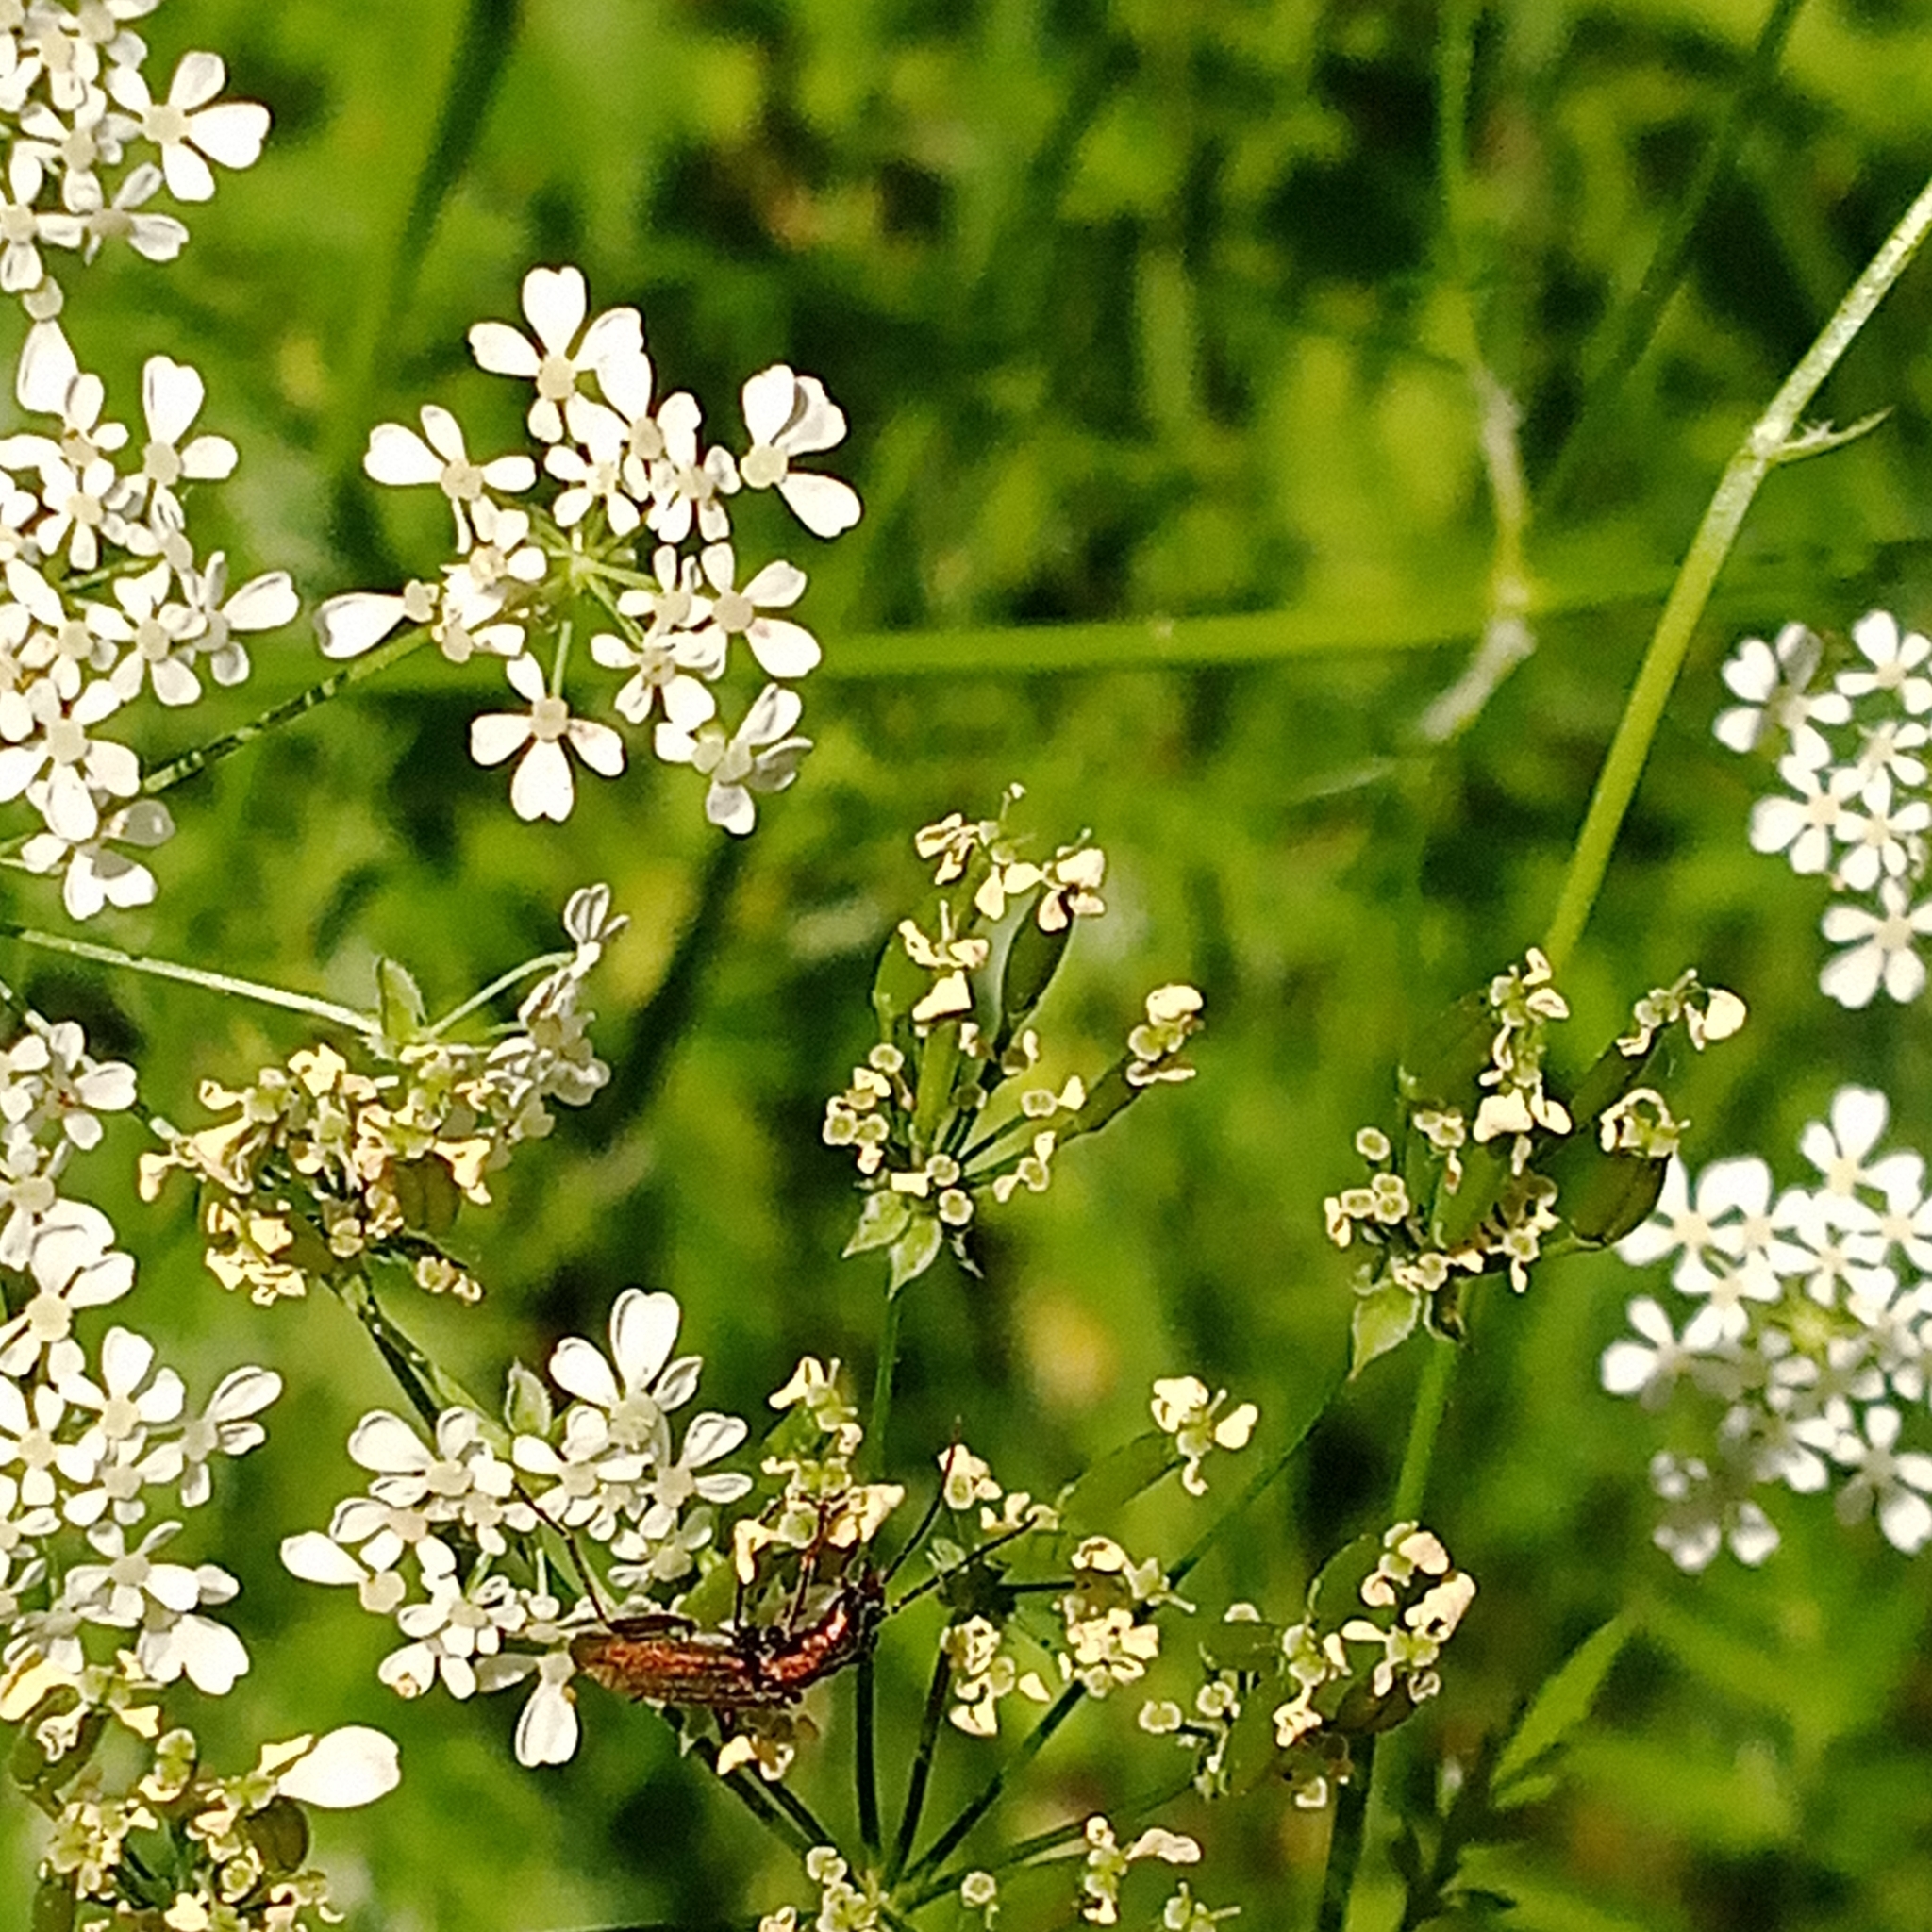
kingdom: Animalia
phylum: Arthropoda
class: Insecta
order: Coleoptera
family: Oedemeridae
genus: Chrysanthia
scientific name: Chrysanthia viridissima
